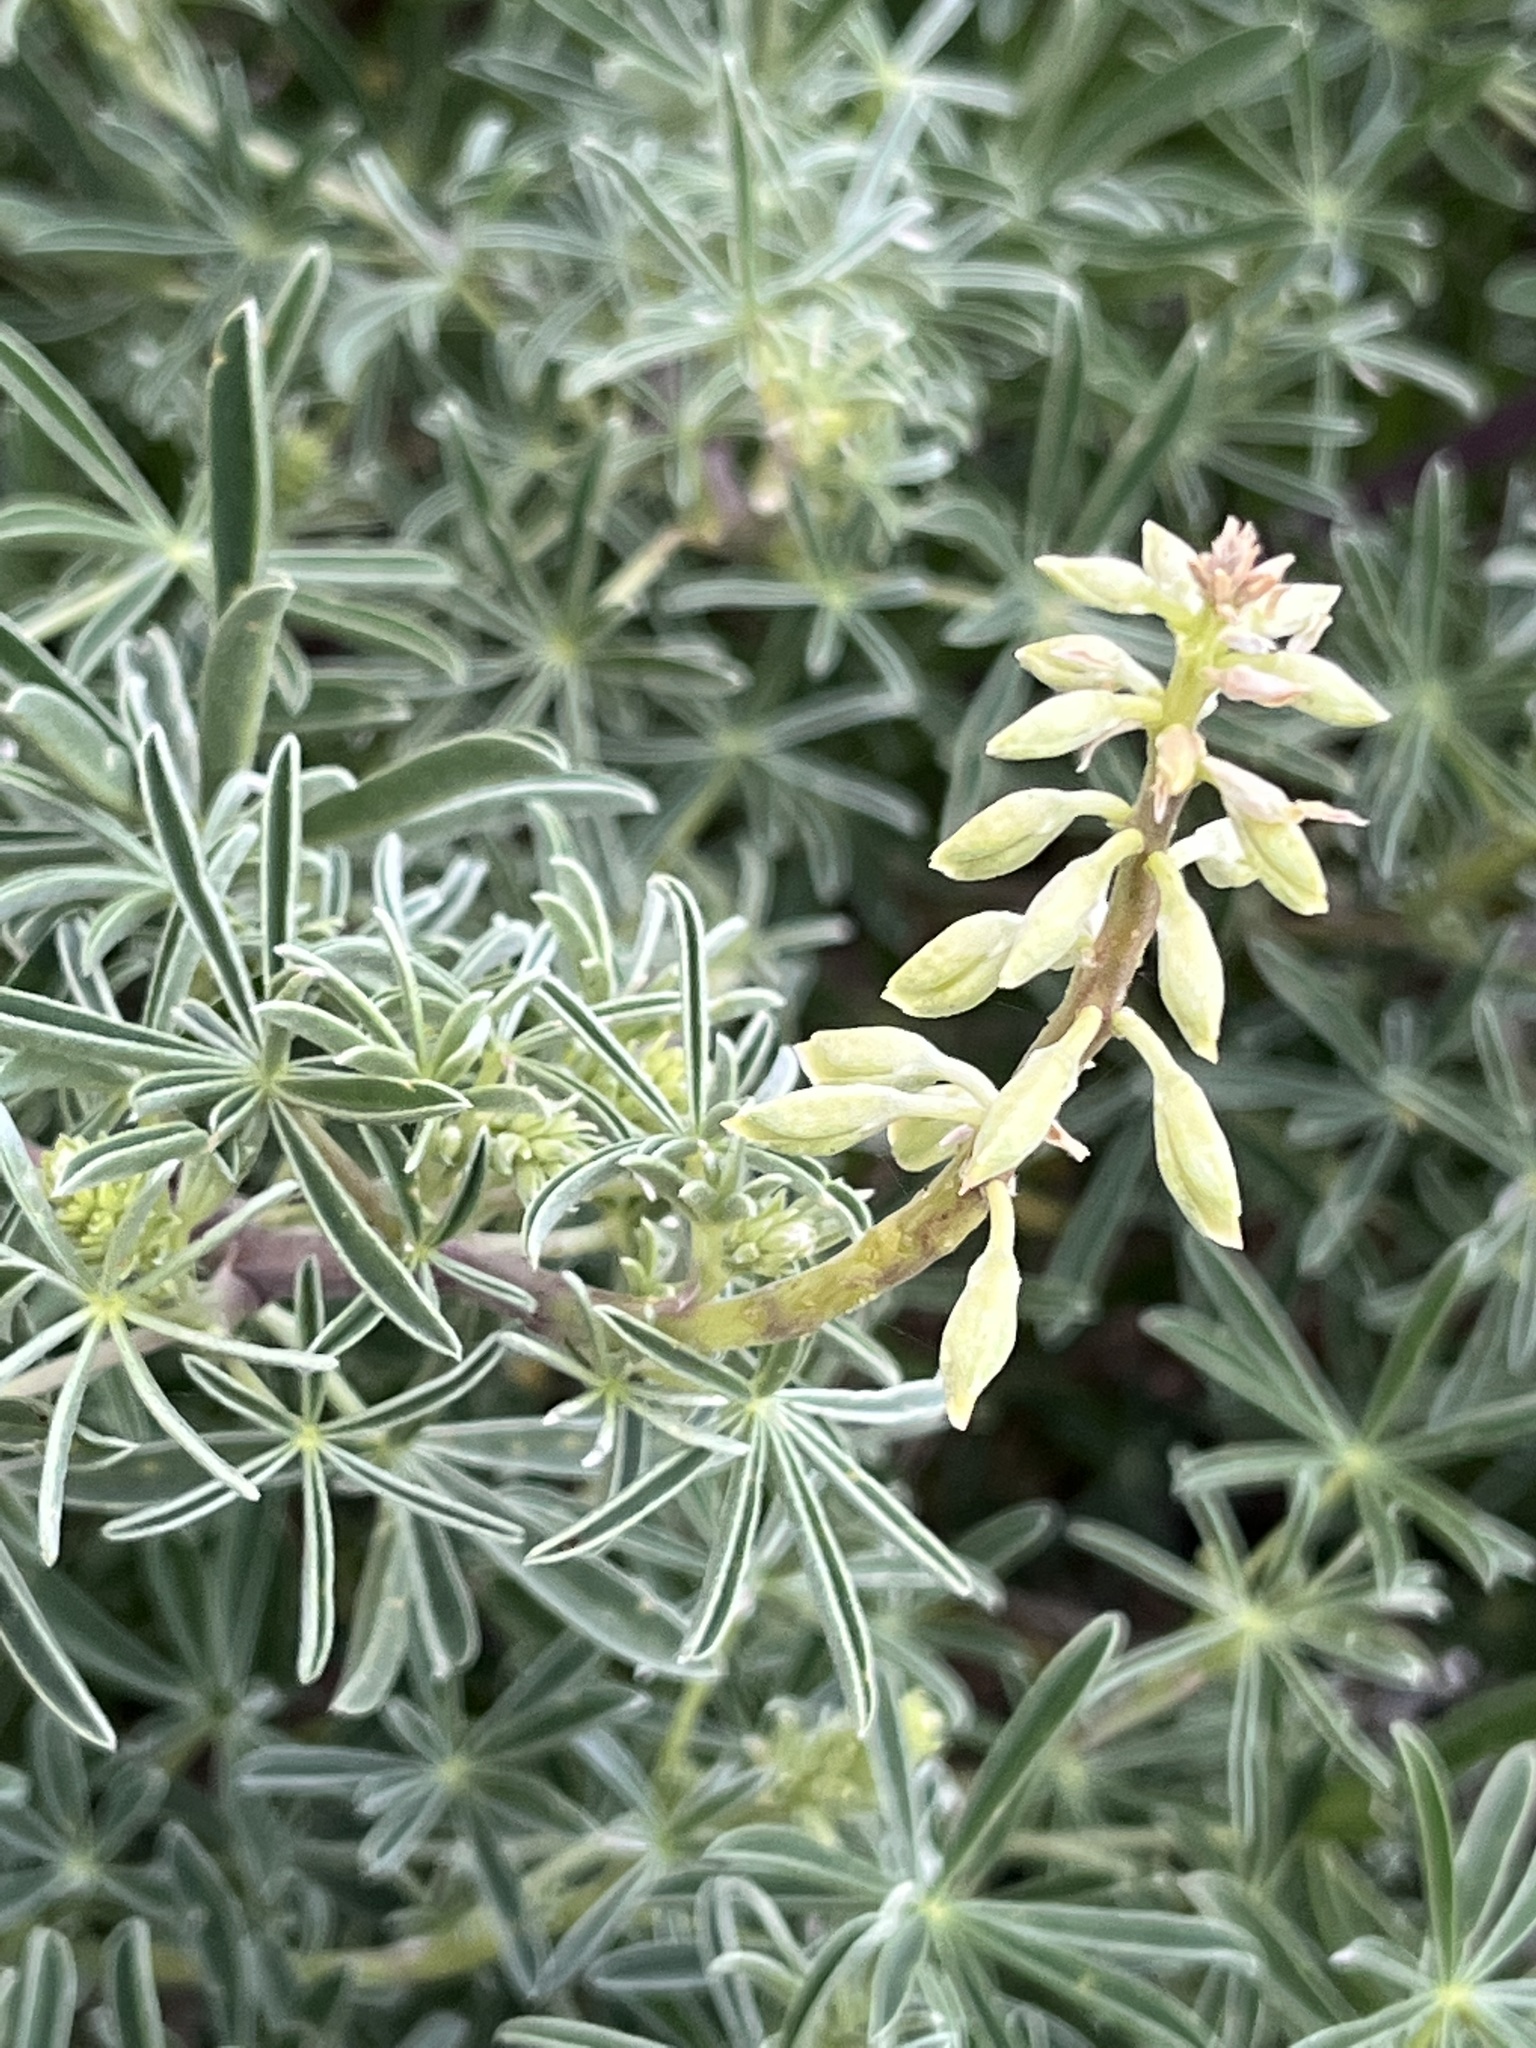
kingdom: Plantae
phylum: Tracheophyta
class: Magnoliopsida
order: Fabales
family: Fabaceae
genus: Lupinus
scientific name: Lupinus arboreus
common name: Yellow bush lupine
